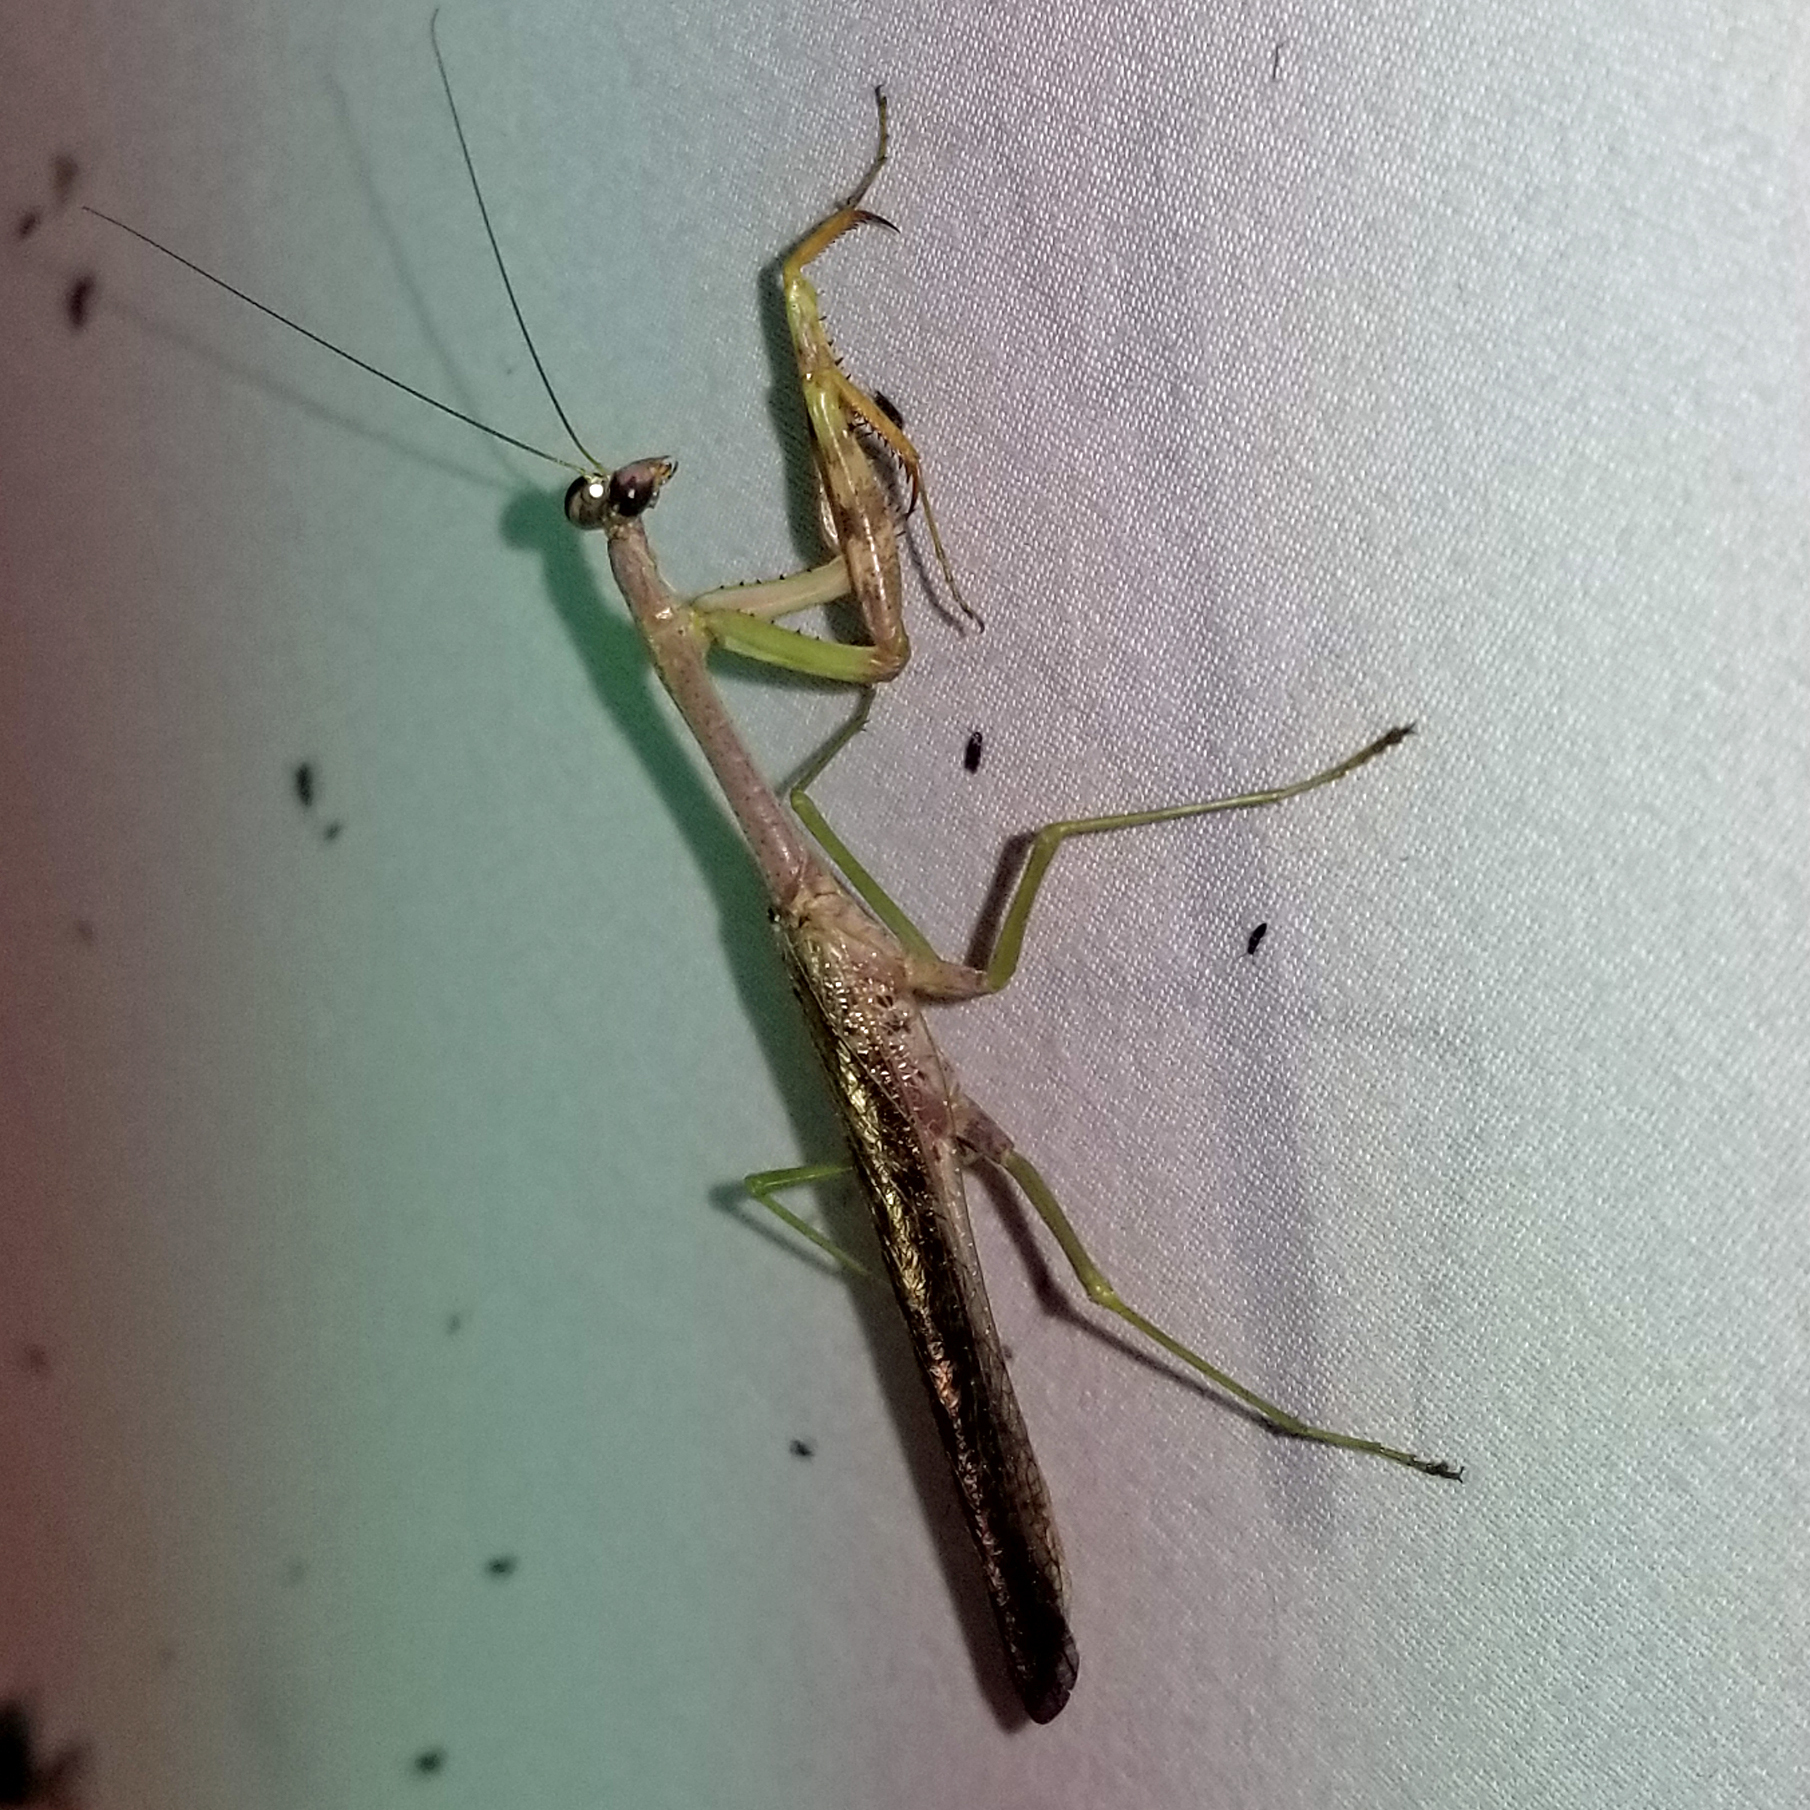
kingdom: Animalia
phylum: Arthropoda
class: Insecta
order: Mantodea
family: Mantidae
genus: Stagmomantis
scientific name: Stagmomantis carolina
